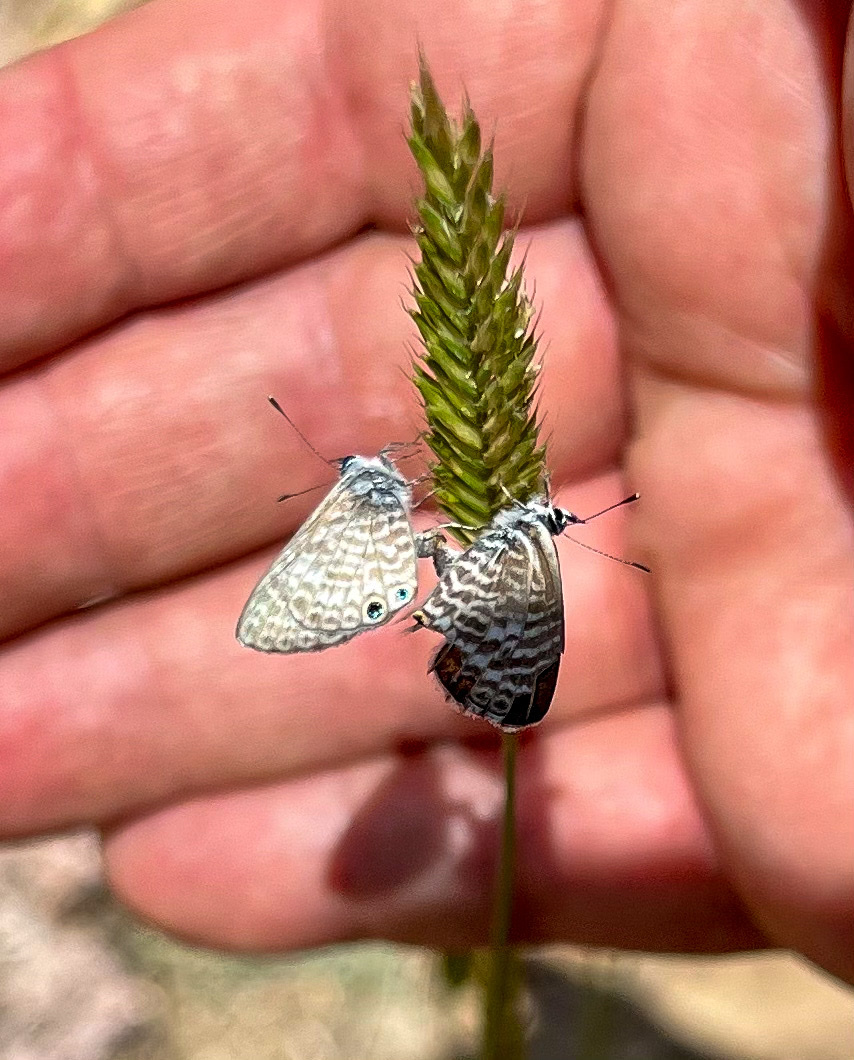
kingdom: Animalia
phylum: Arthropoda
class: Insecta
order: Lepidoptera
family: Lycaenidae
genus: Leptotes
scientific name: Leptotes marina
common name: Marine blue
